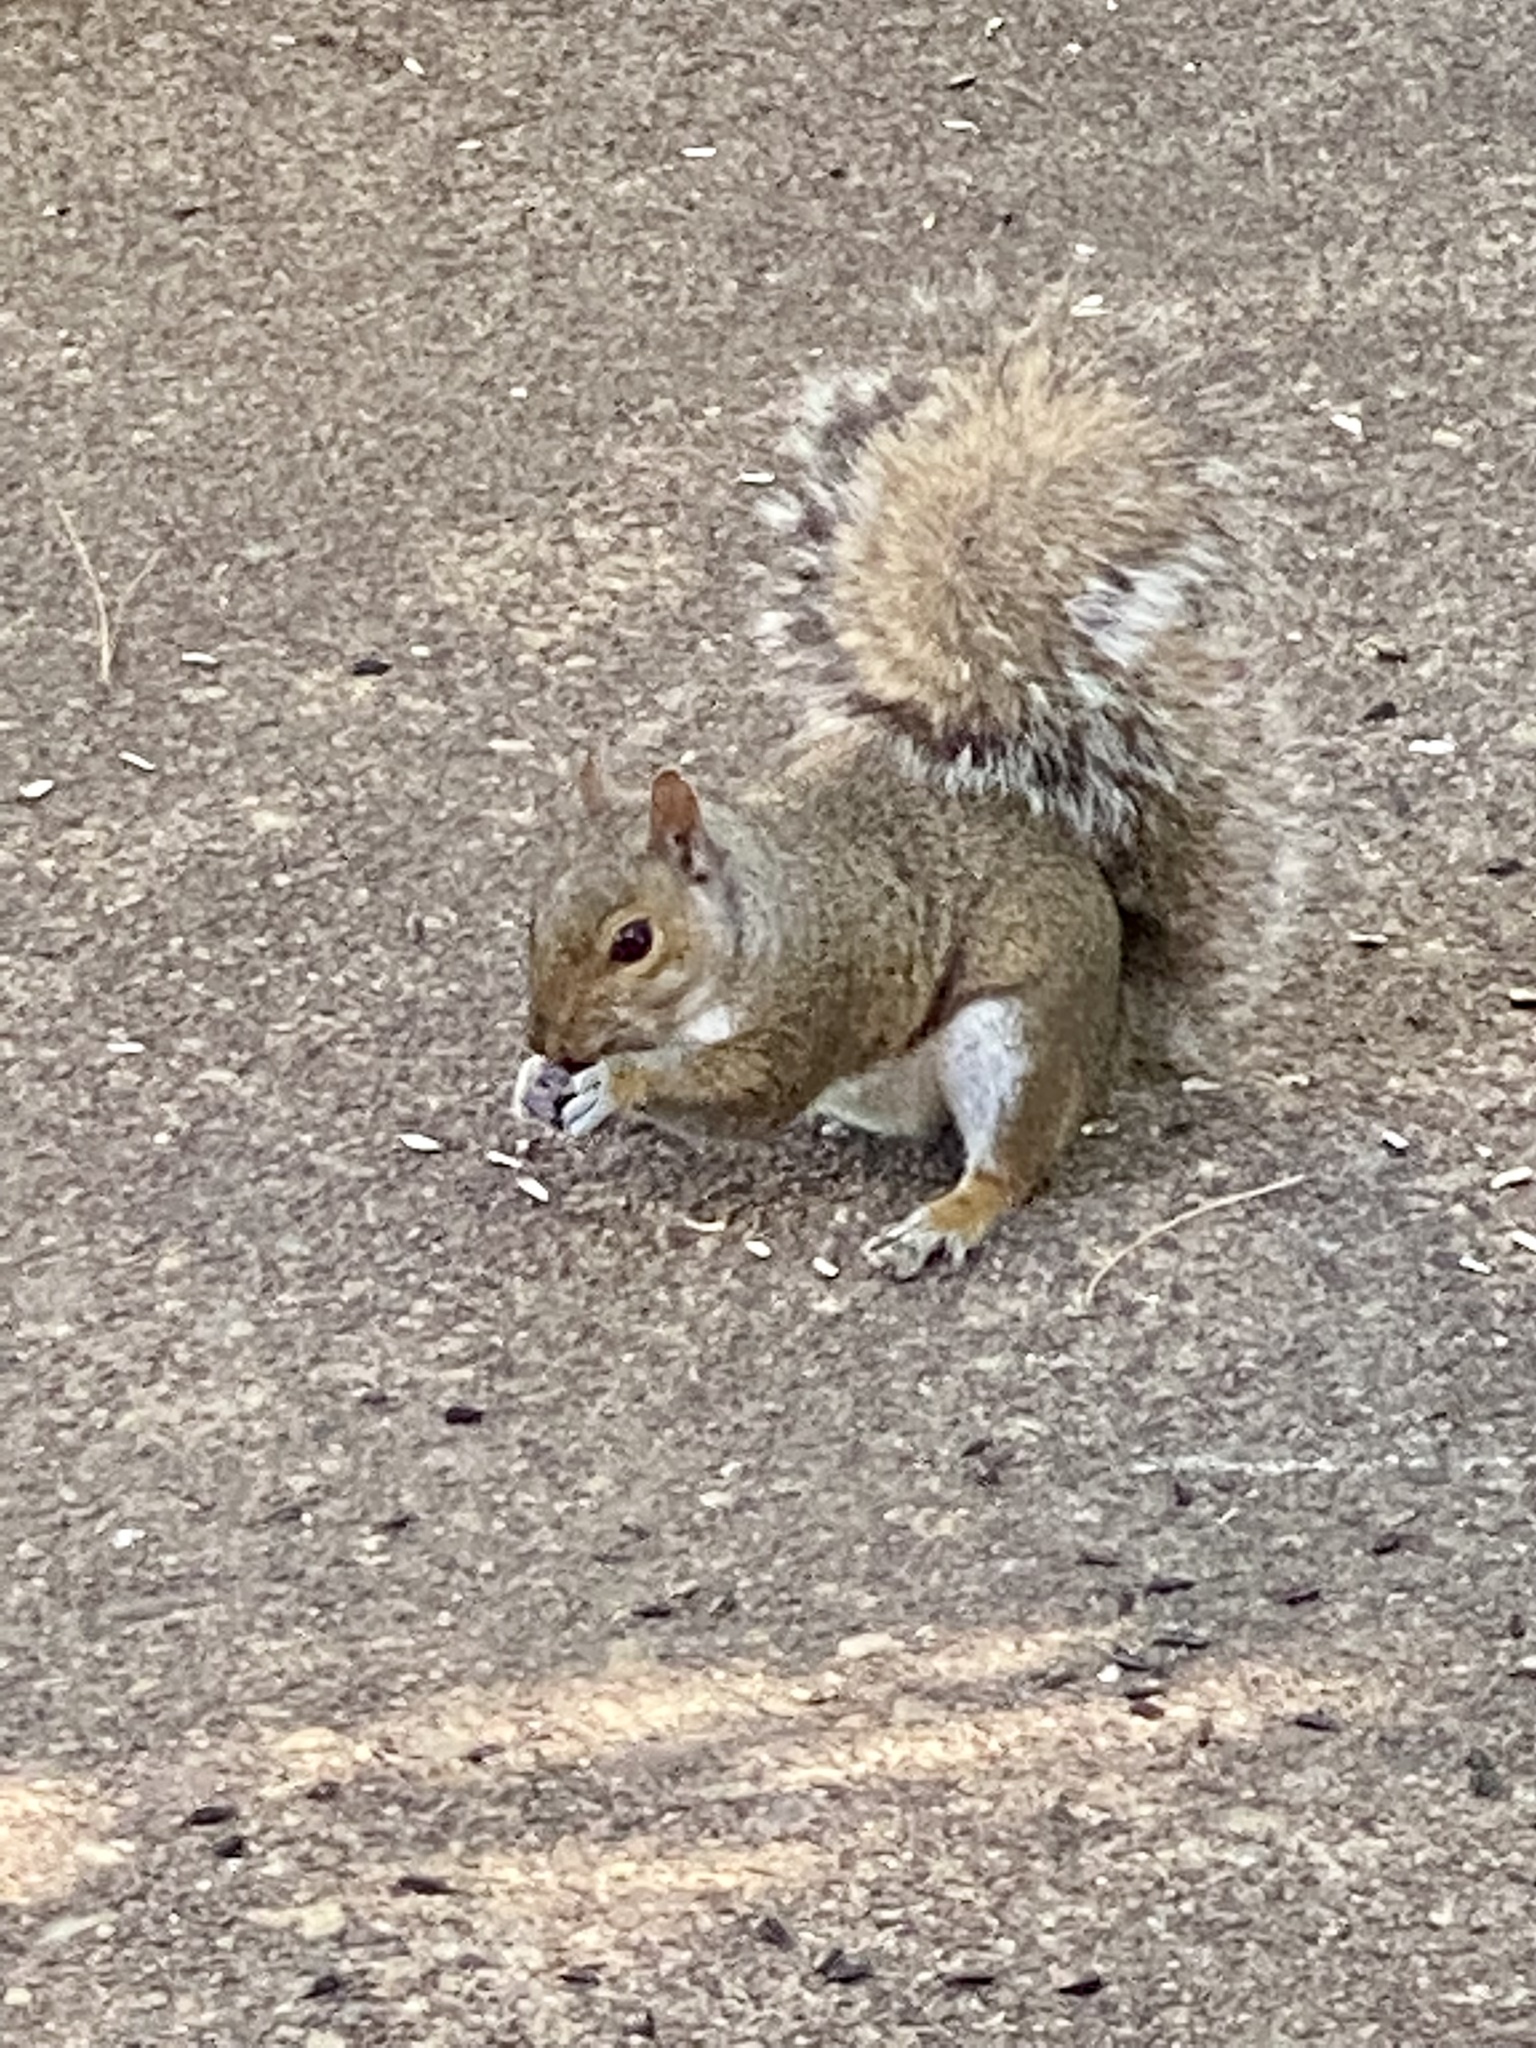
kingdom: Animalia
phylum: Chordata
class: Mammalia
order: Rodentia
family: Sciuridae
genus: Sciurus
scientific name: Sciurus carolinensis
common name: Eastern gray squirrel
